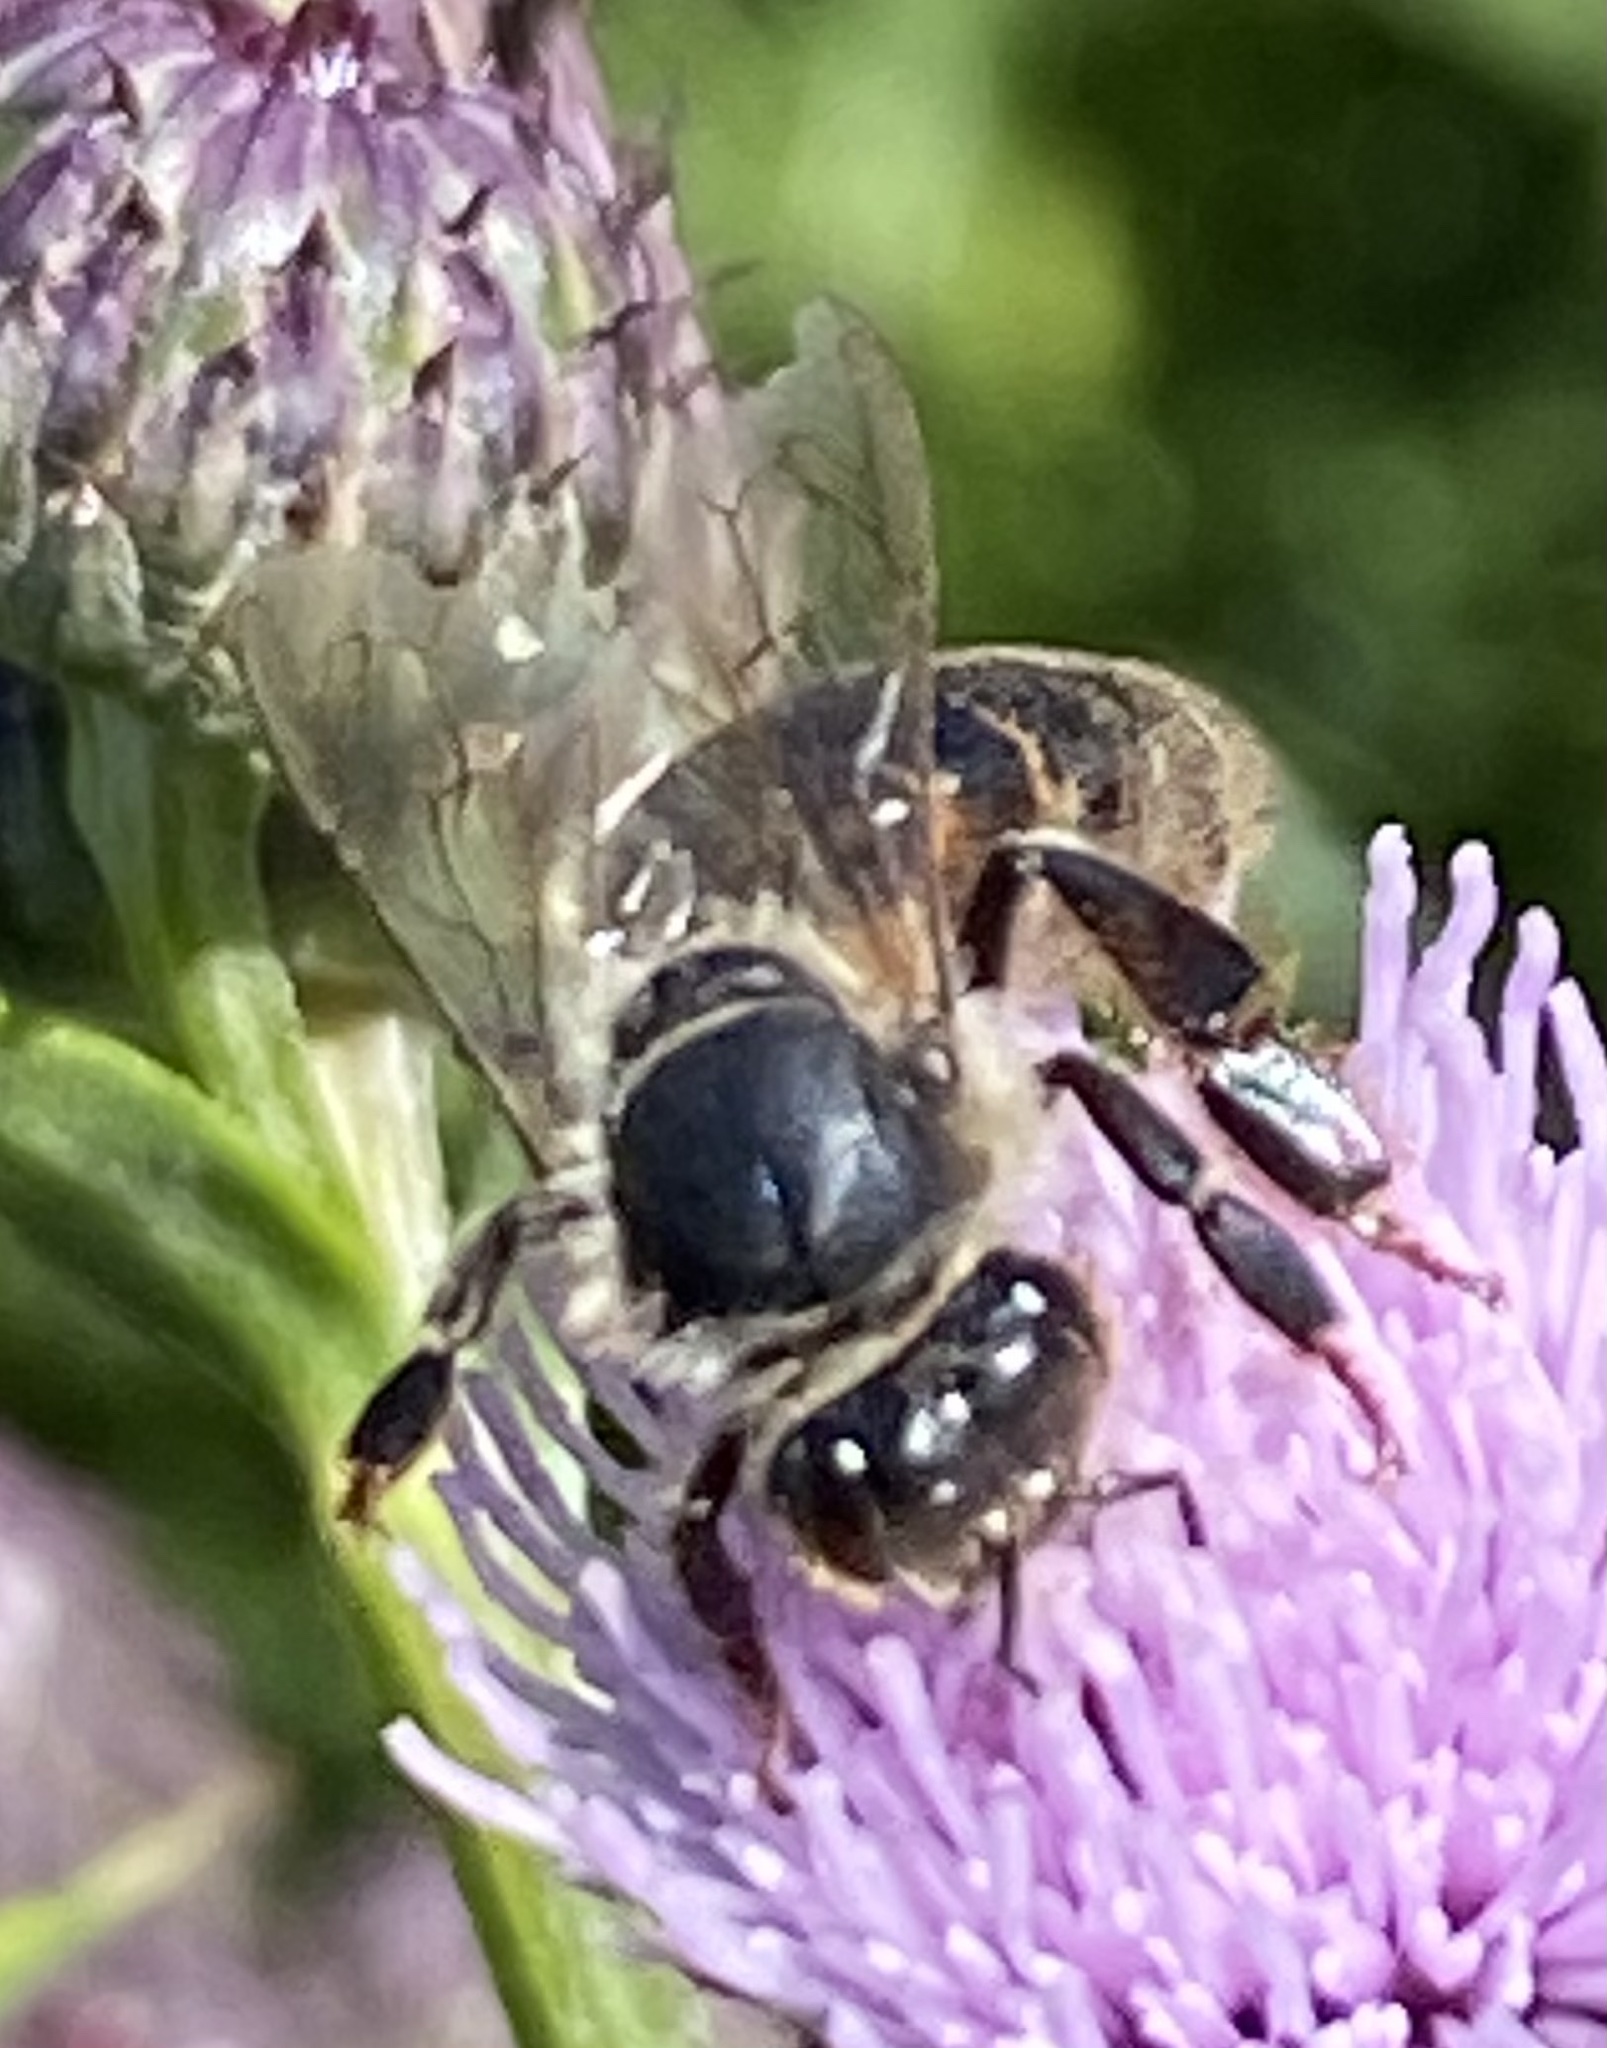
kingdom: Animalia
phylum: Arthropoda
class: Insecta
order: Hymenoptera
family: Apidae
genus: Apis
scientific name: Apis mellifera
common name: Honey bee
